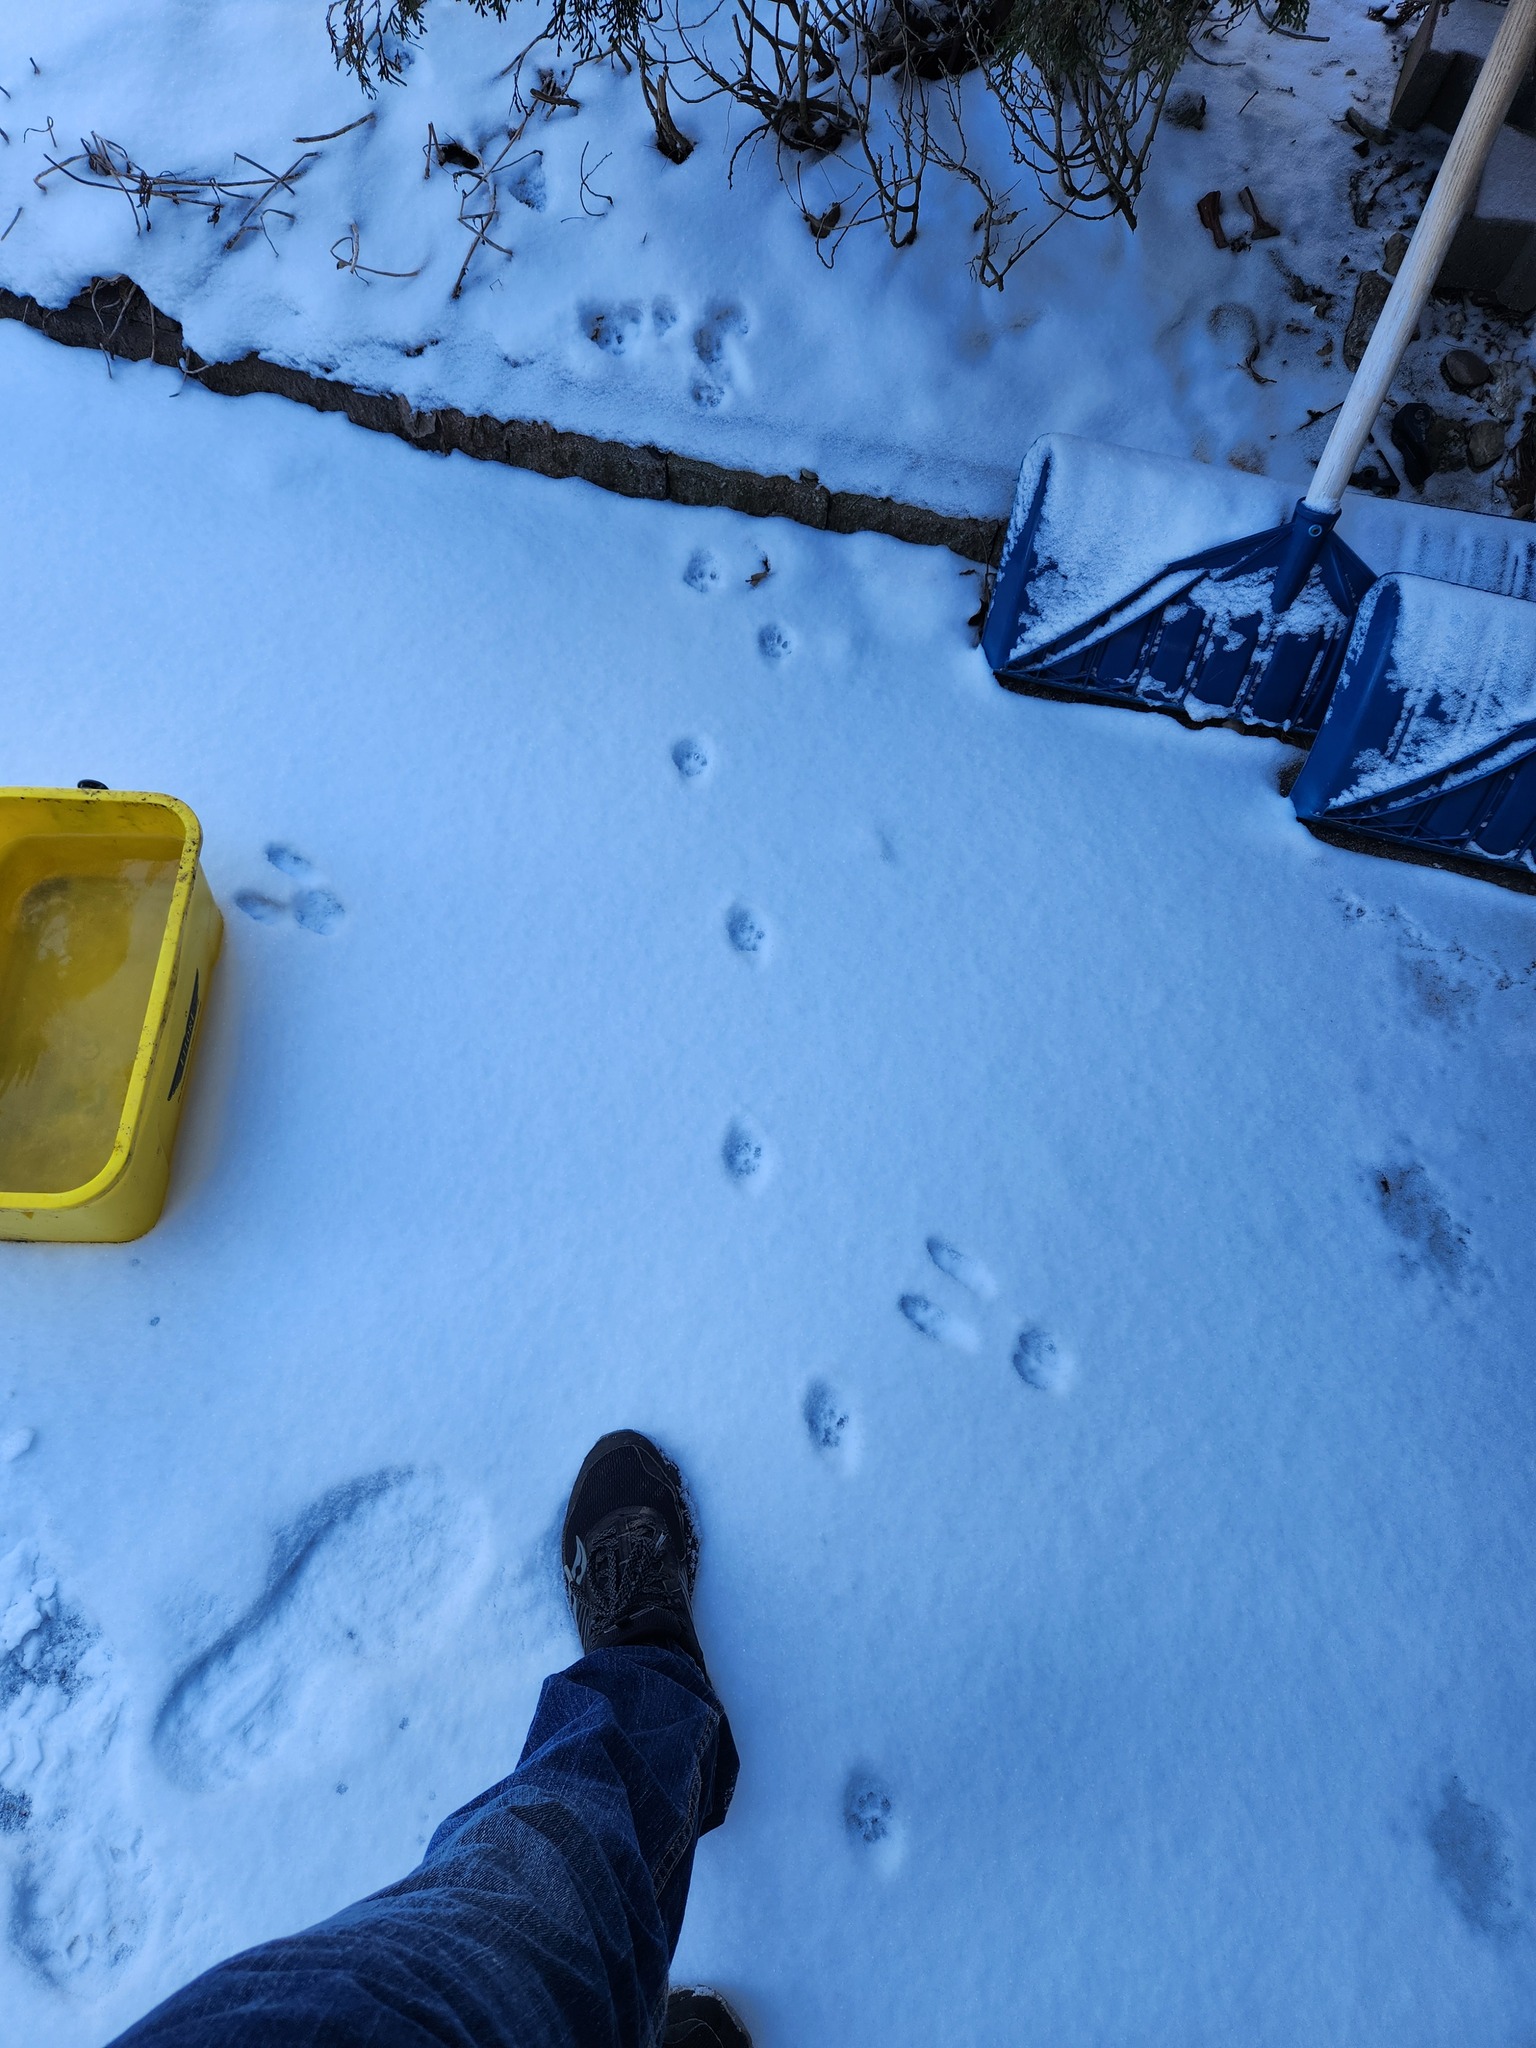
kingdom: Animalia
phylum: Chordata
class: Mammalia
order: Carnivora
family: Felidae
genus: Felis
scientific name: Felis catus
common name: Domestic cat
